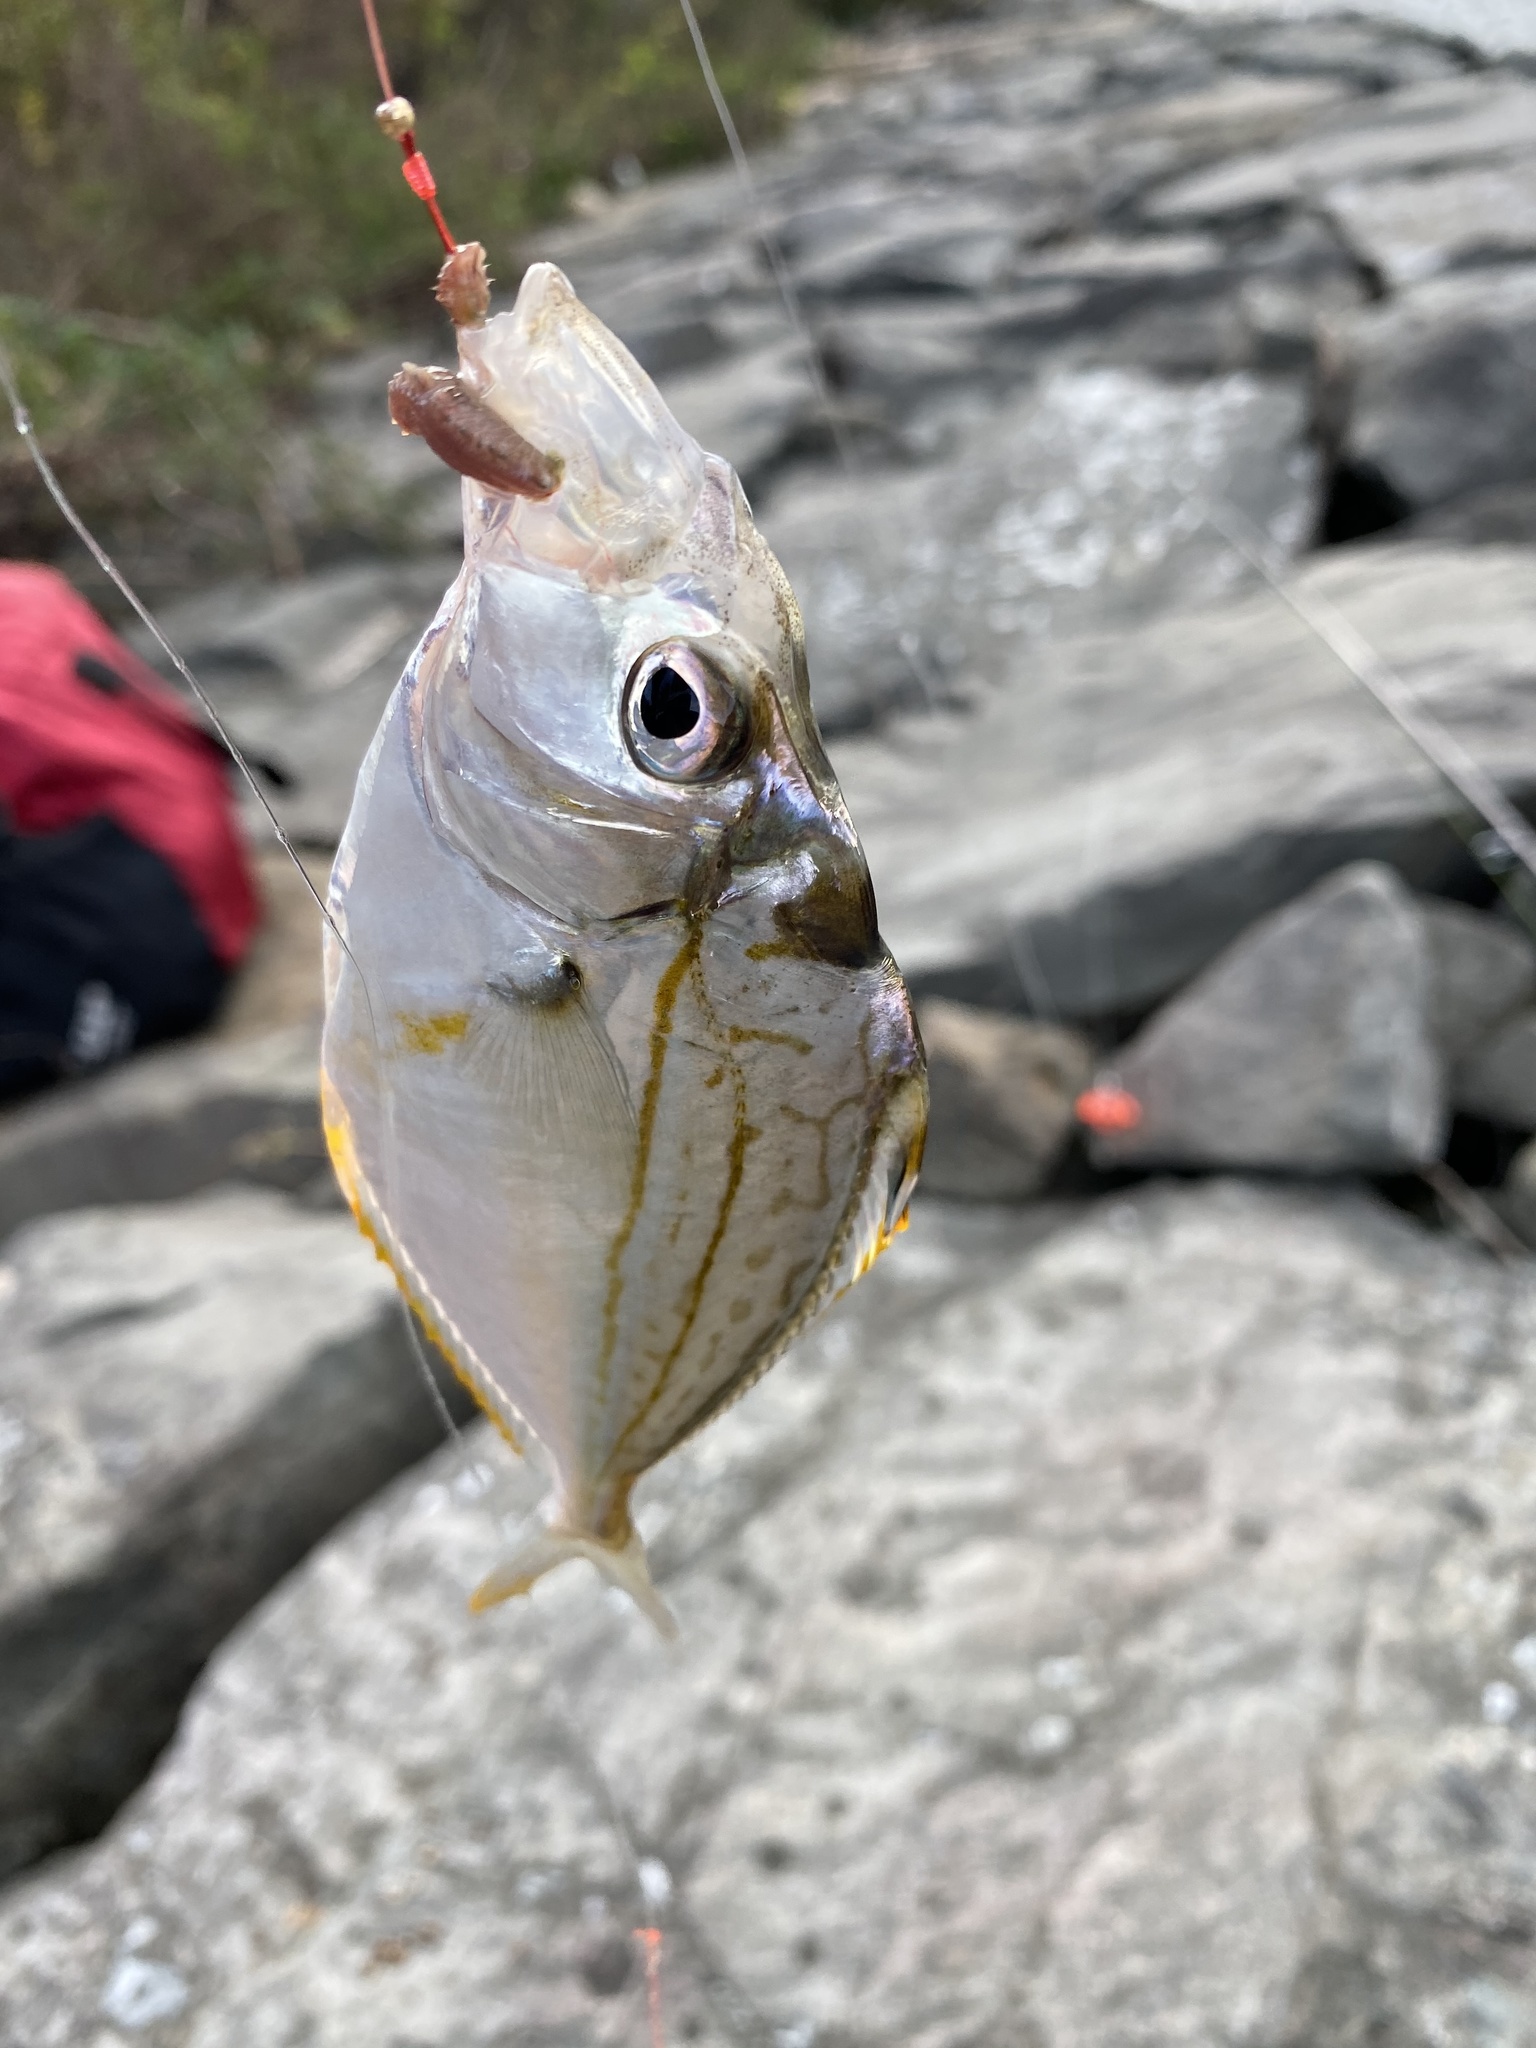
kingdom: Animalia
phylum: Chordata
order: Perciformes
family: Leiognathidae
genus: Nuchequula
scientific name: Nuchequula nuchalis
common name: Spotnape ponyfish
